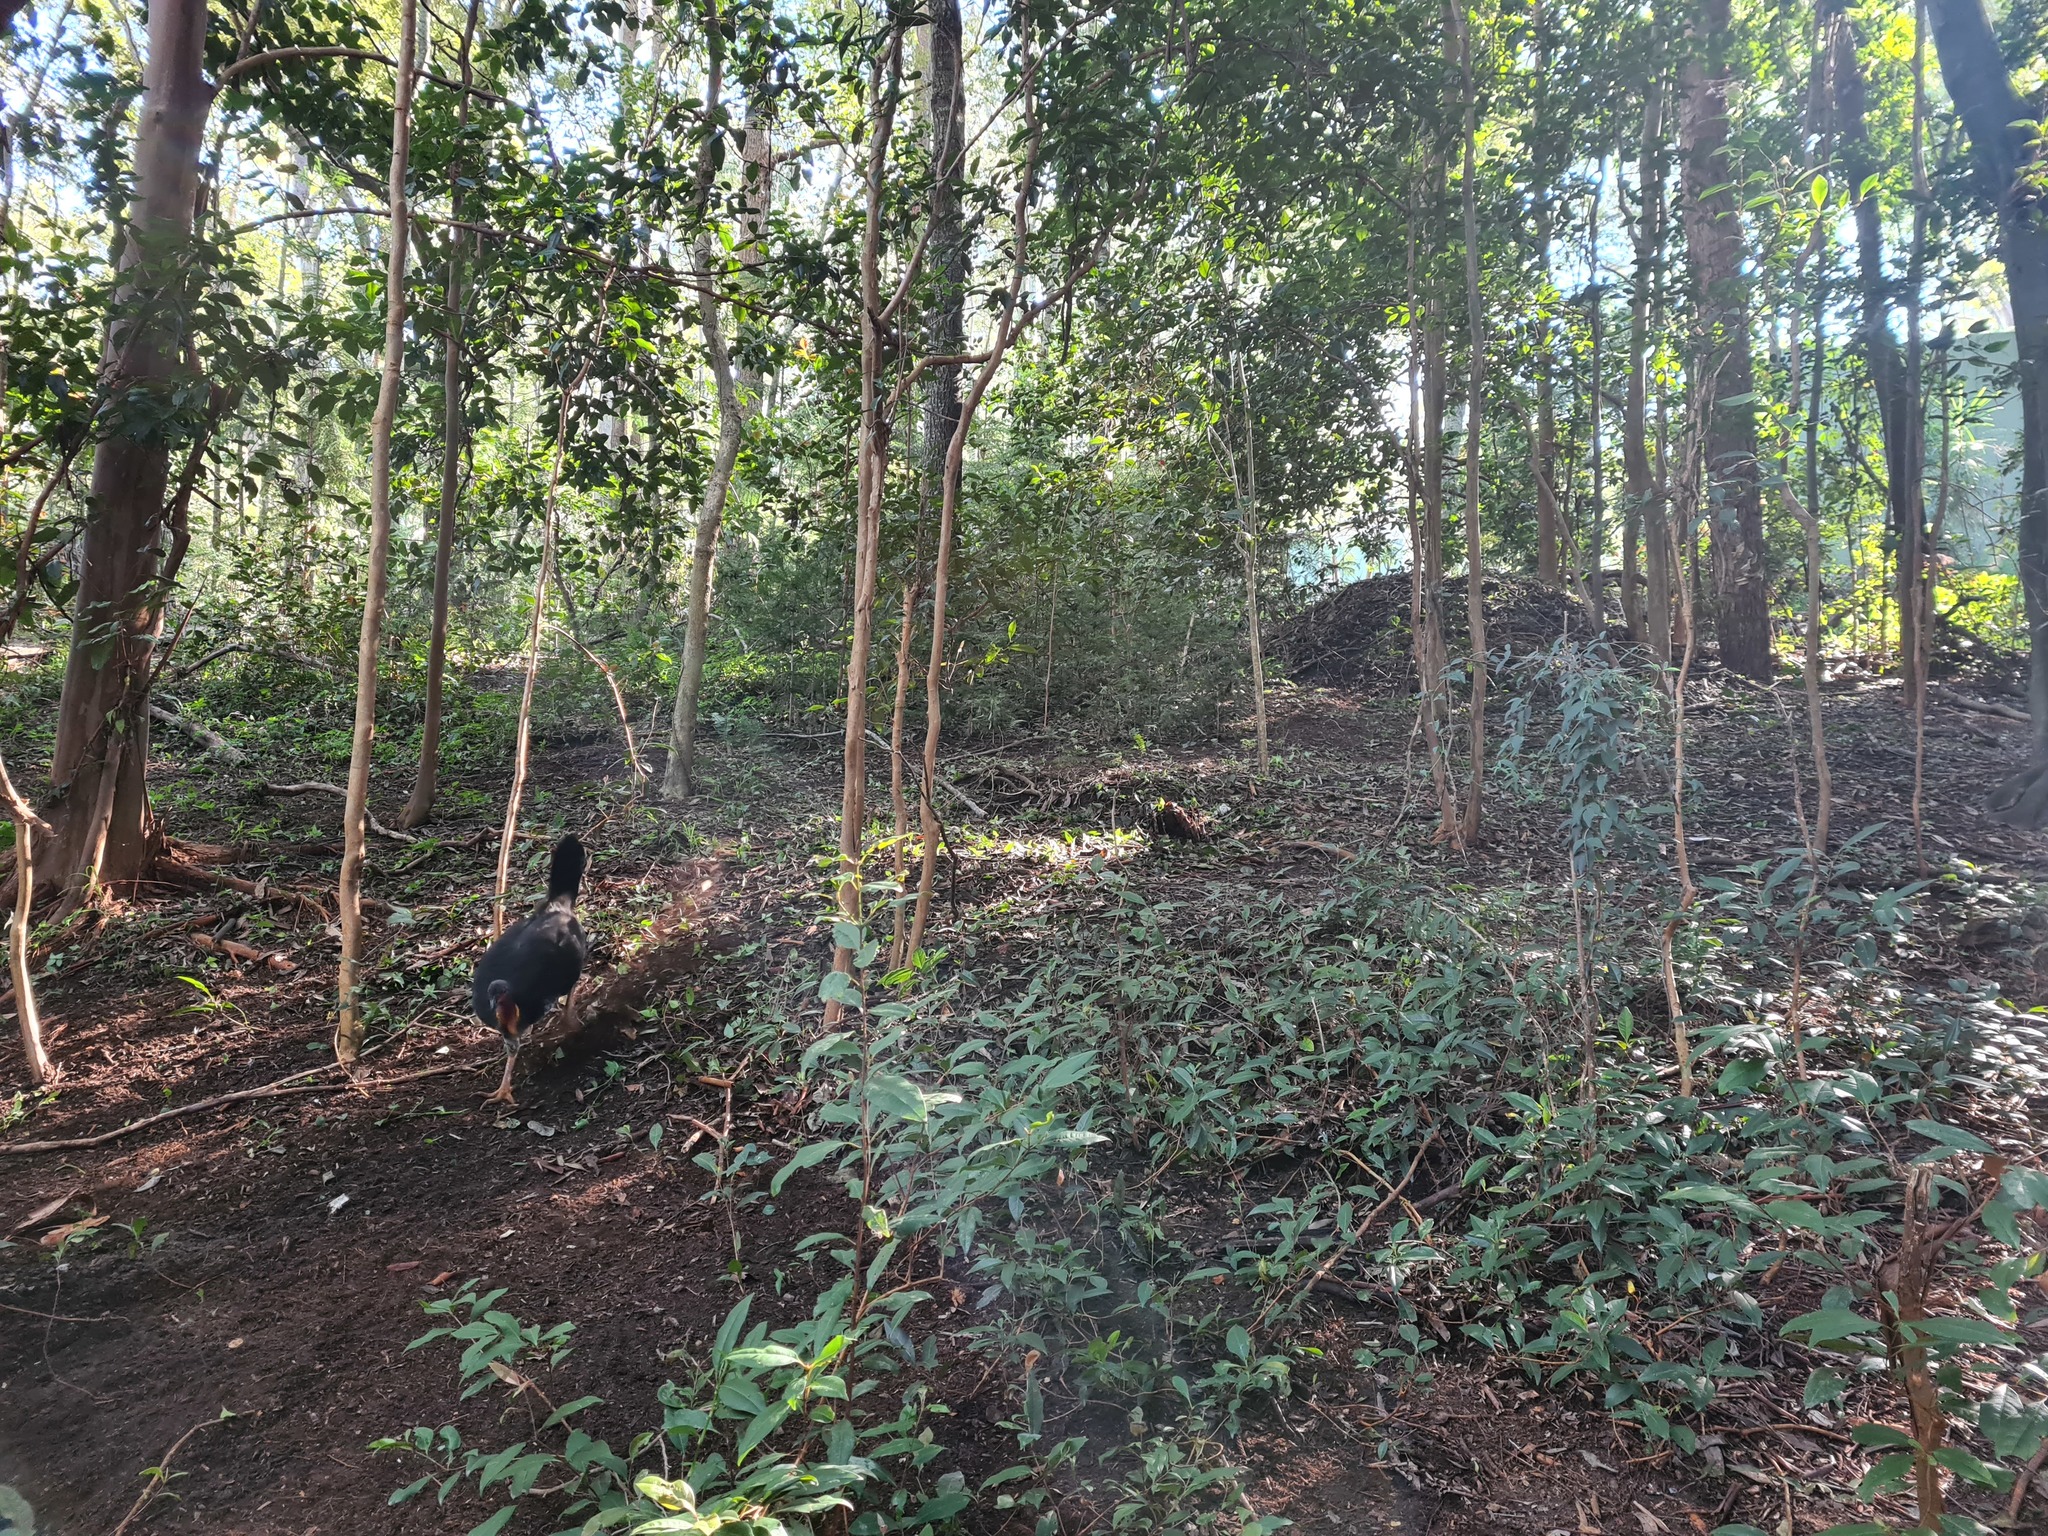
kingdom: Animalia
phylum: Chordata
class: Aves
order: Galliformes
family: Megapodiidae
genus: Alectura
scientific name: Alectura lathami
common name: Australian brushturkey
